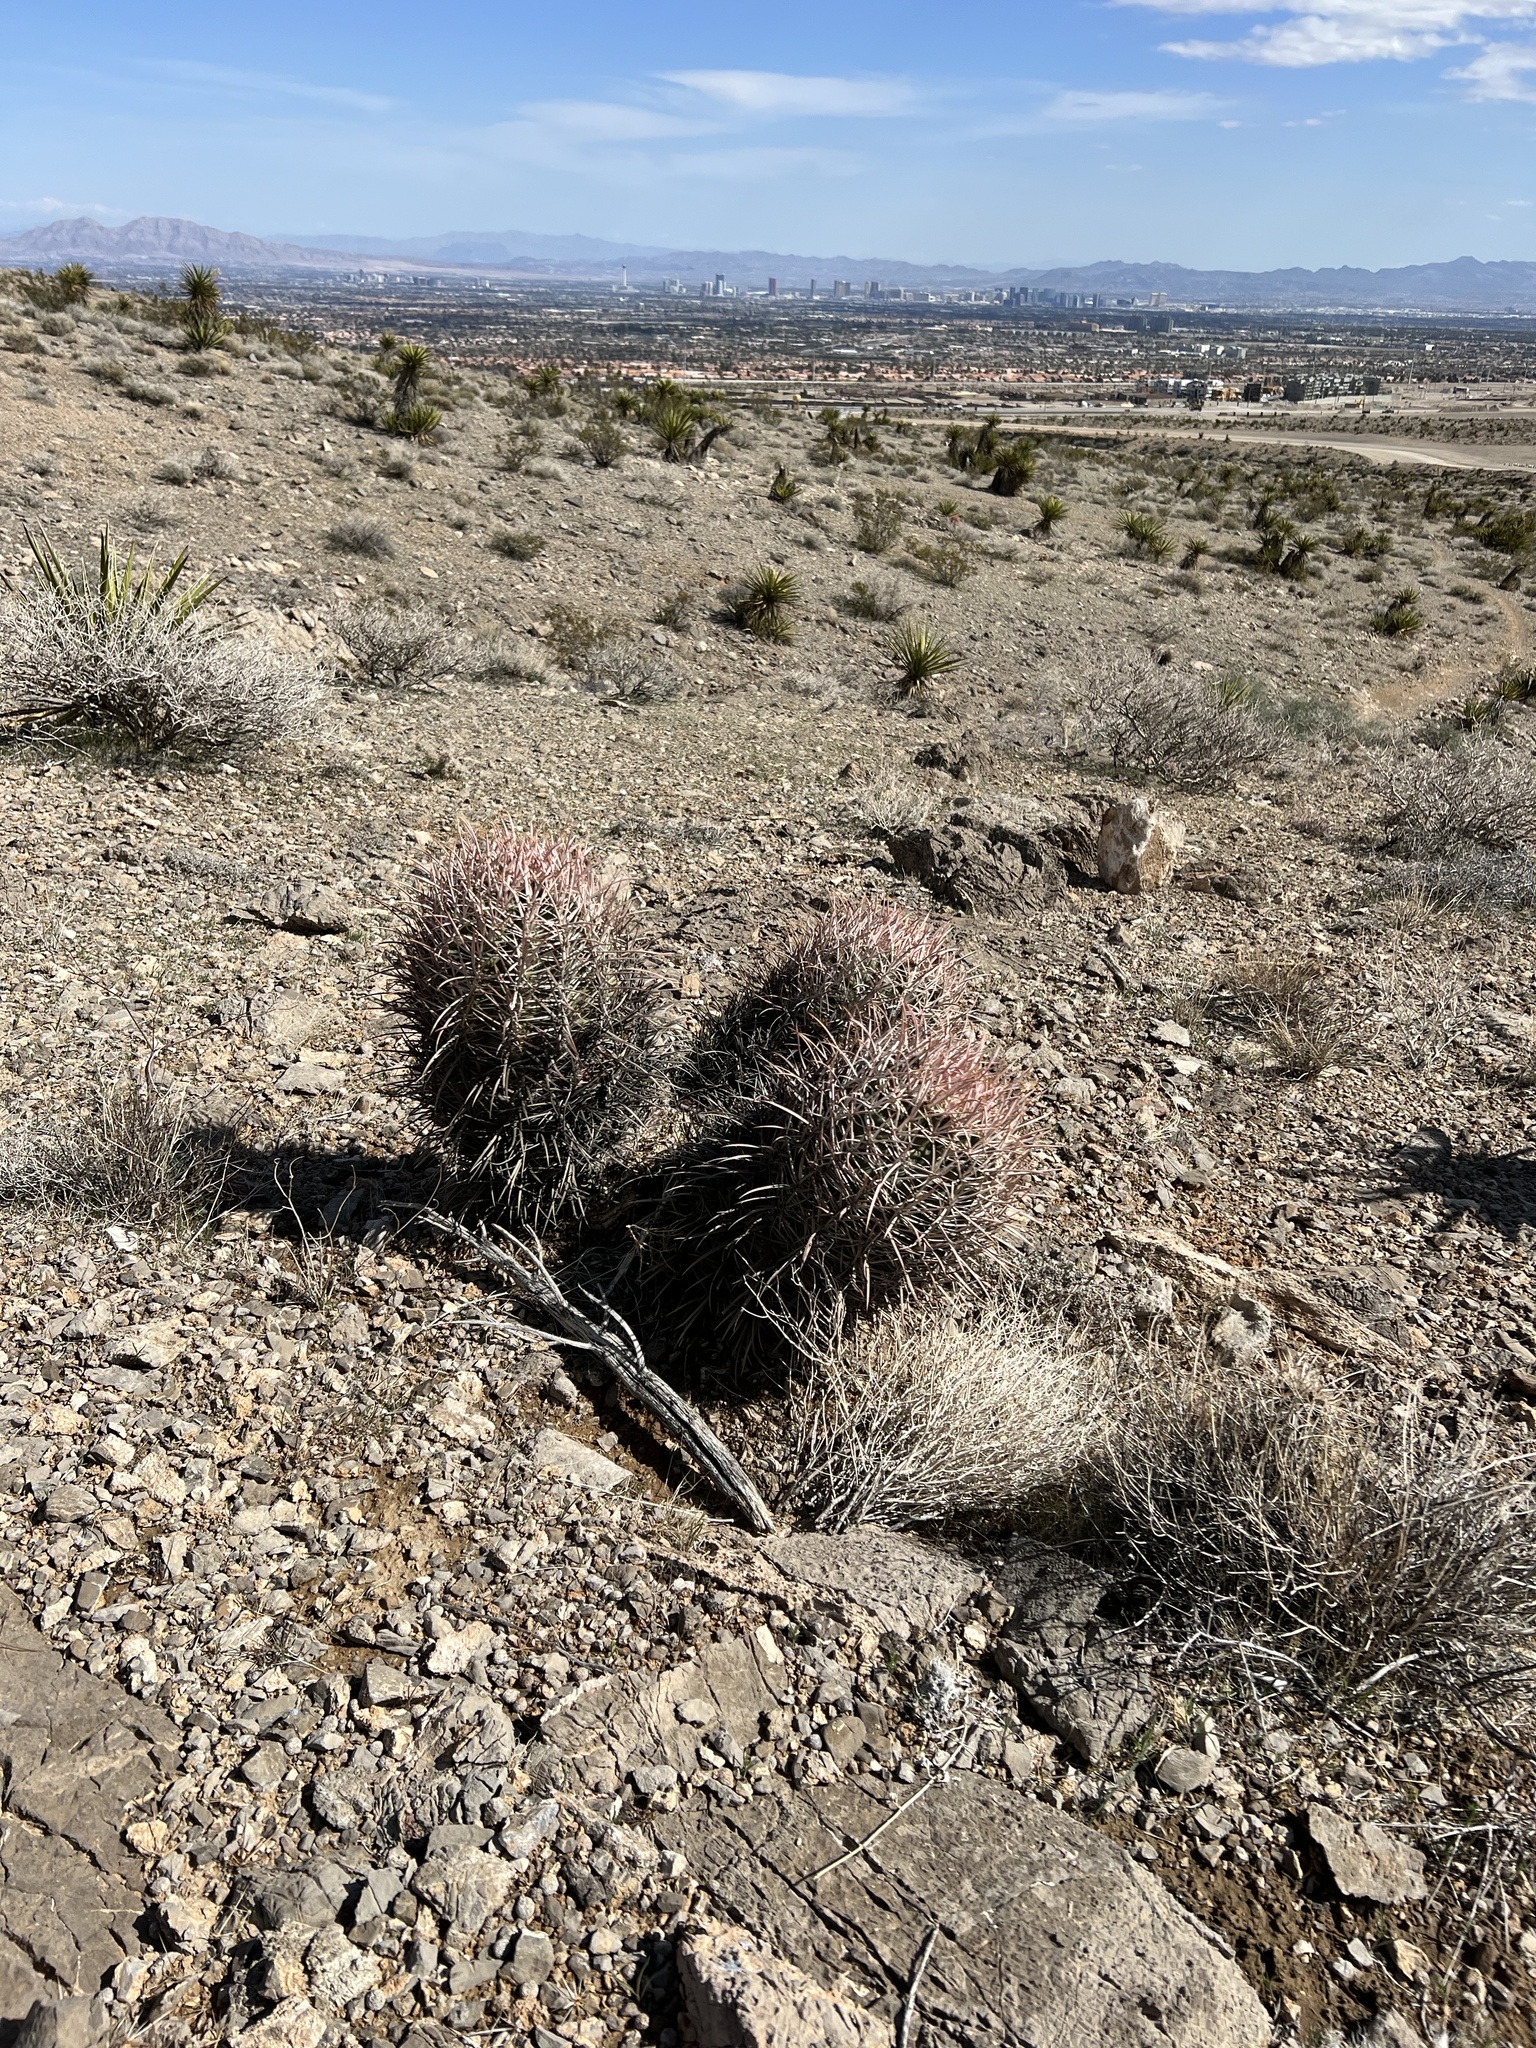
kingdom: Plantae
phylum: Tracheophyta
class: Magnoliopsida
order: Caryophyllales
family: Cactaceae
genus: Echinocactus
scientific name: Echinocactus polycephalus
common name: Cottontop cactus
